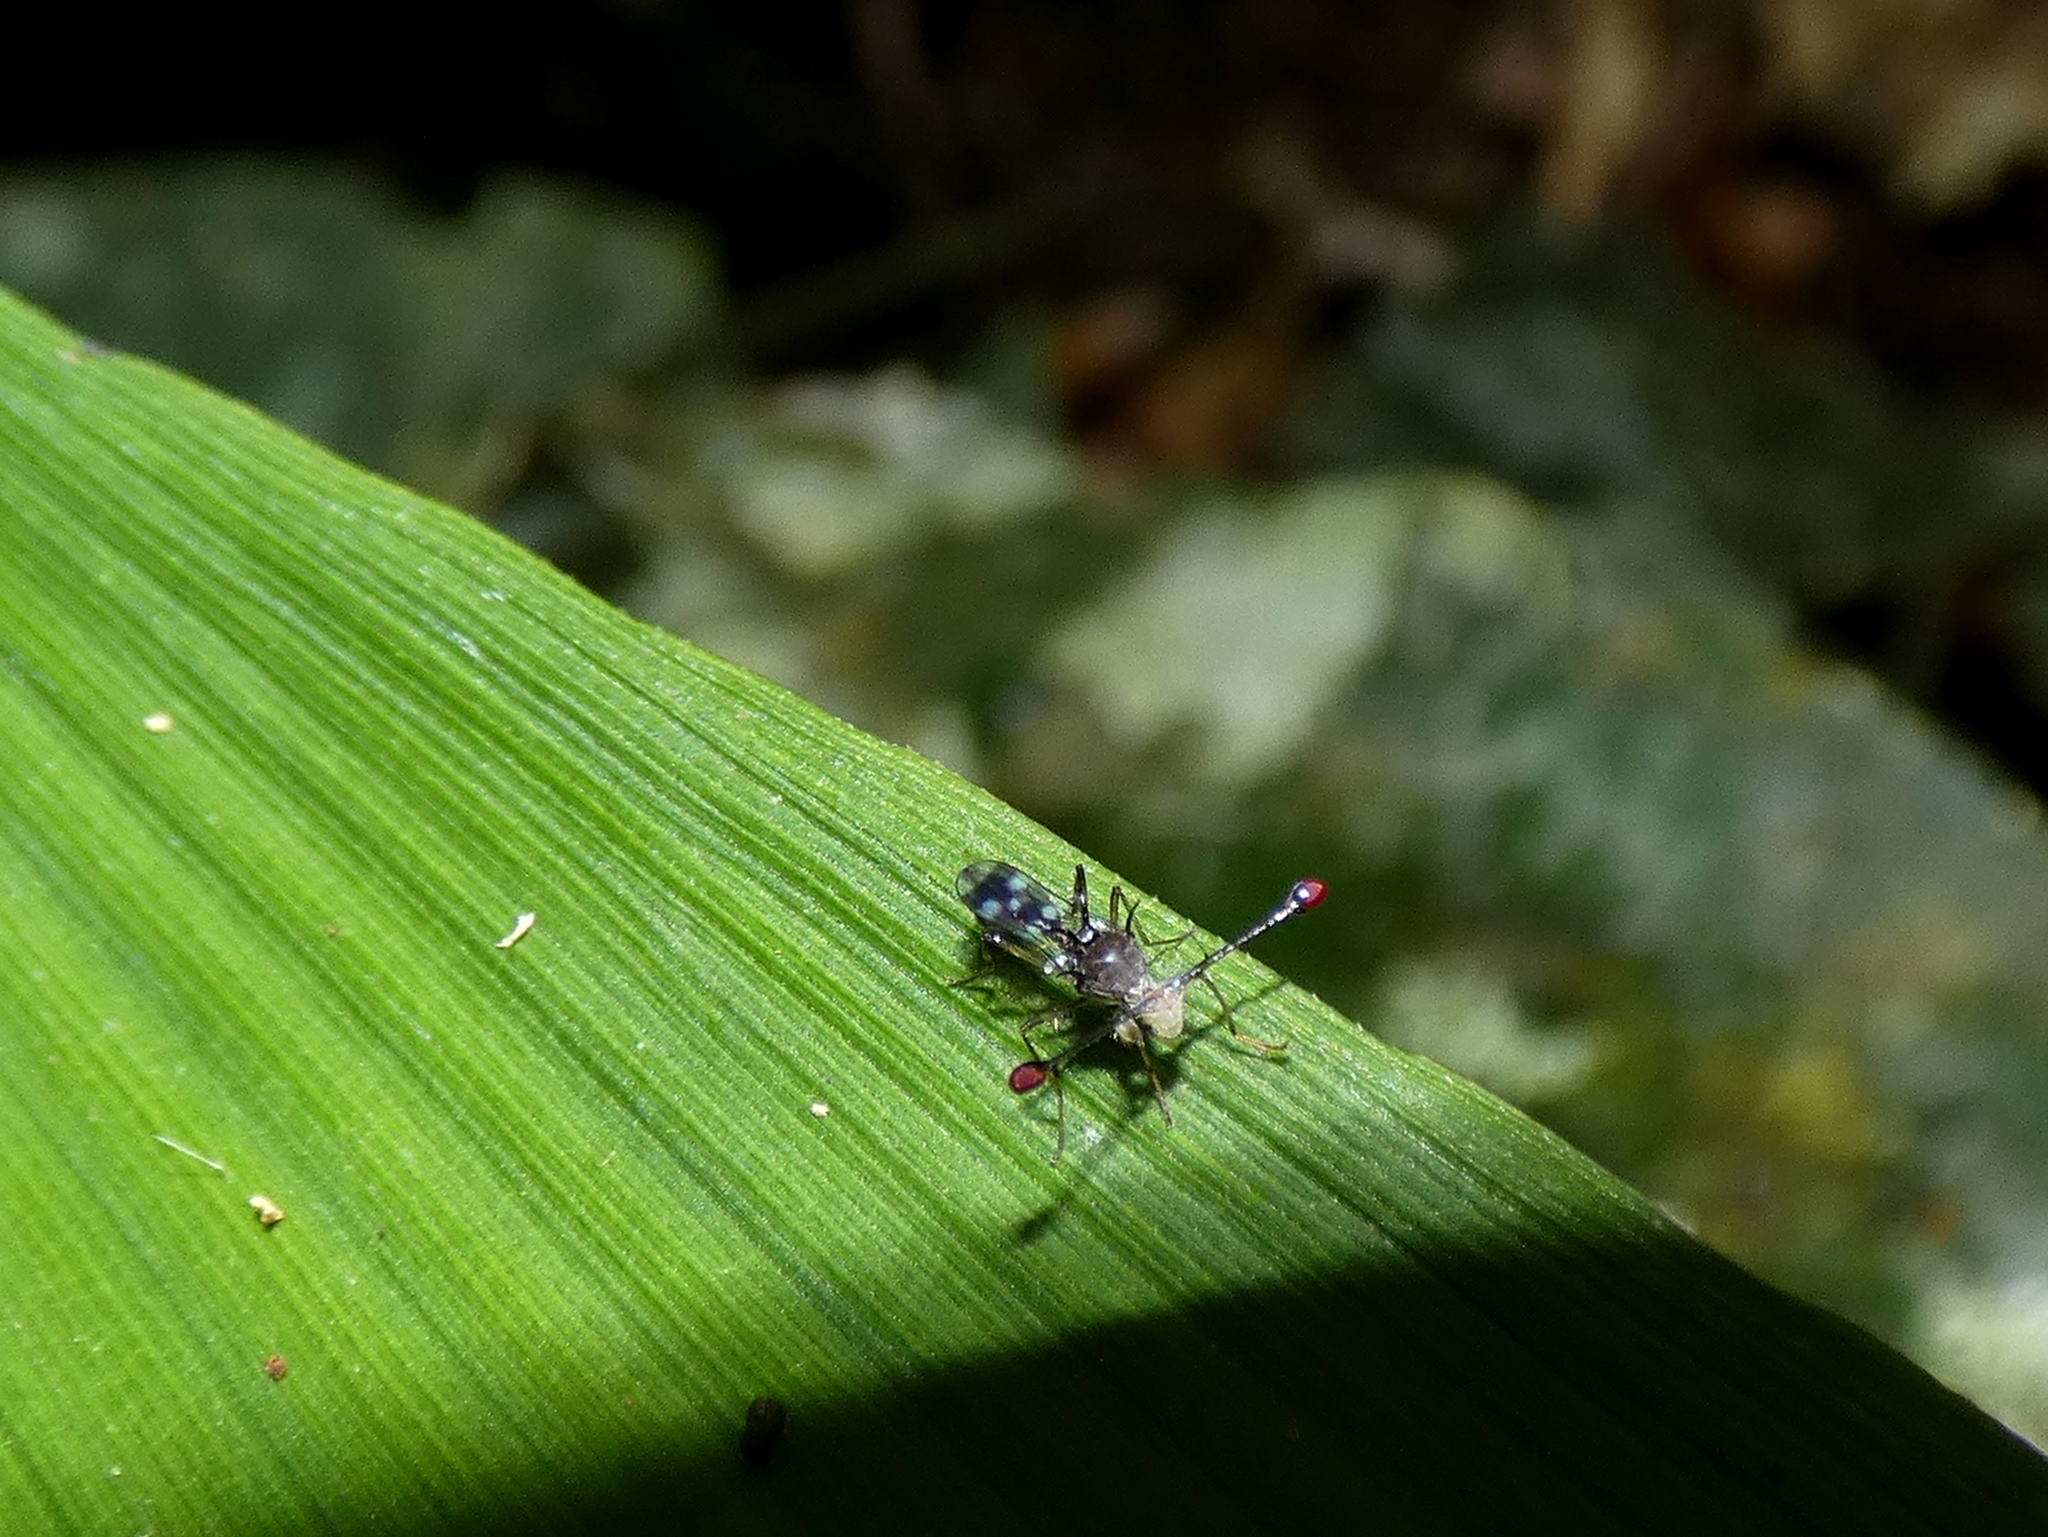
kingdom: Animalia
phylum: Arthropoda
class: Insecta
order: Diptera
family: Diopsidae
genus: Teleopsis
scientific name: Teleopsis pallifacies
